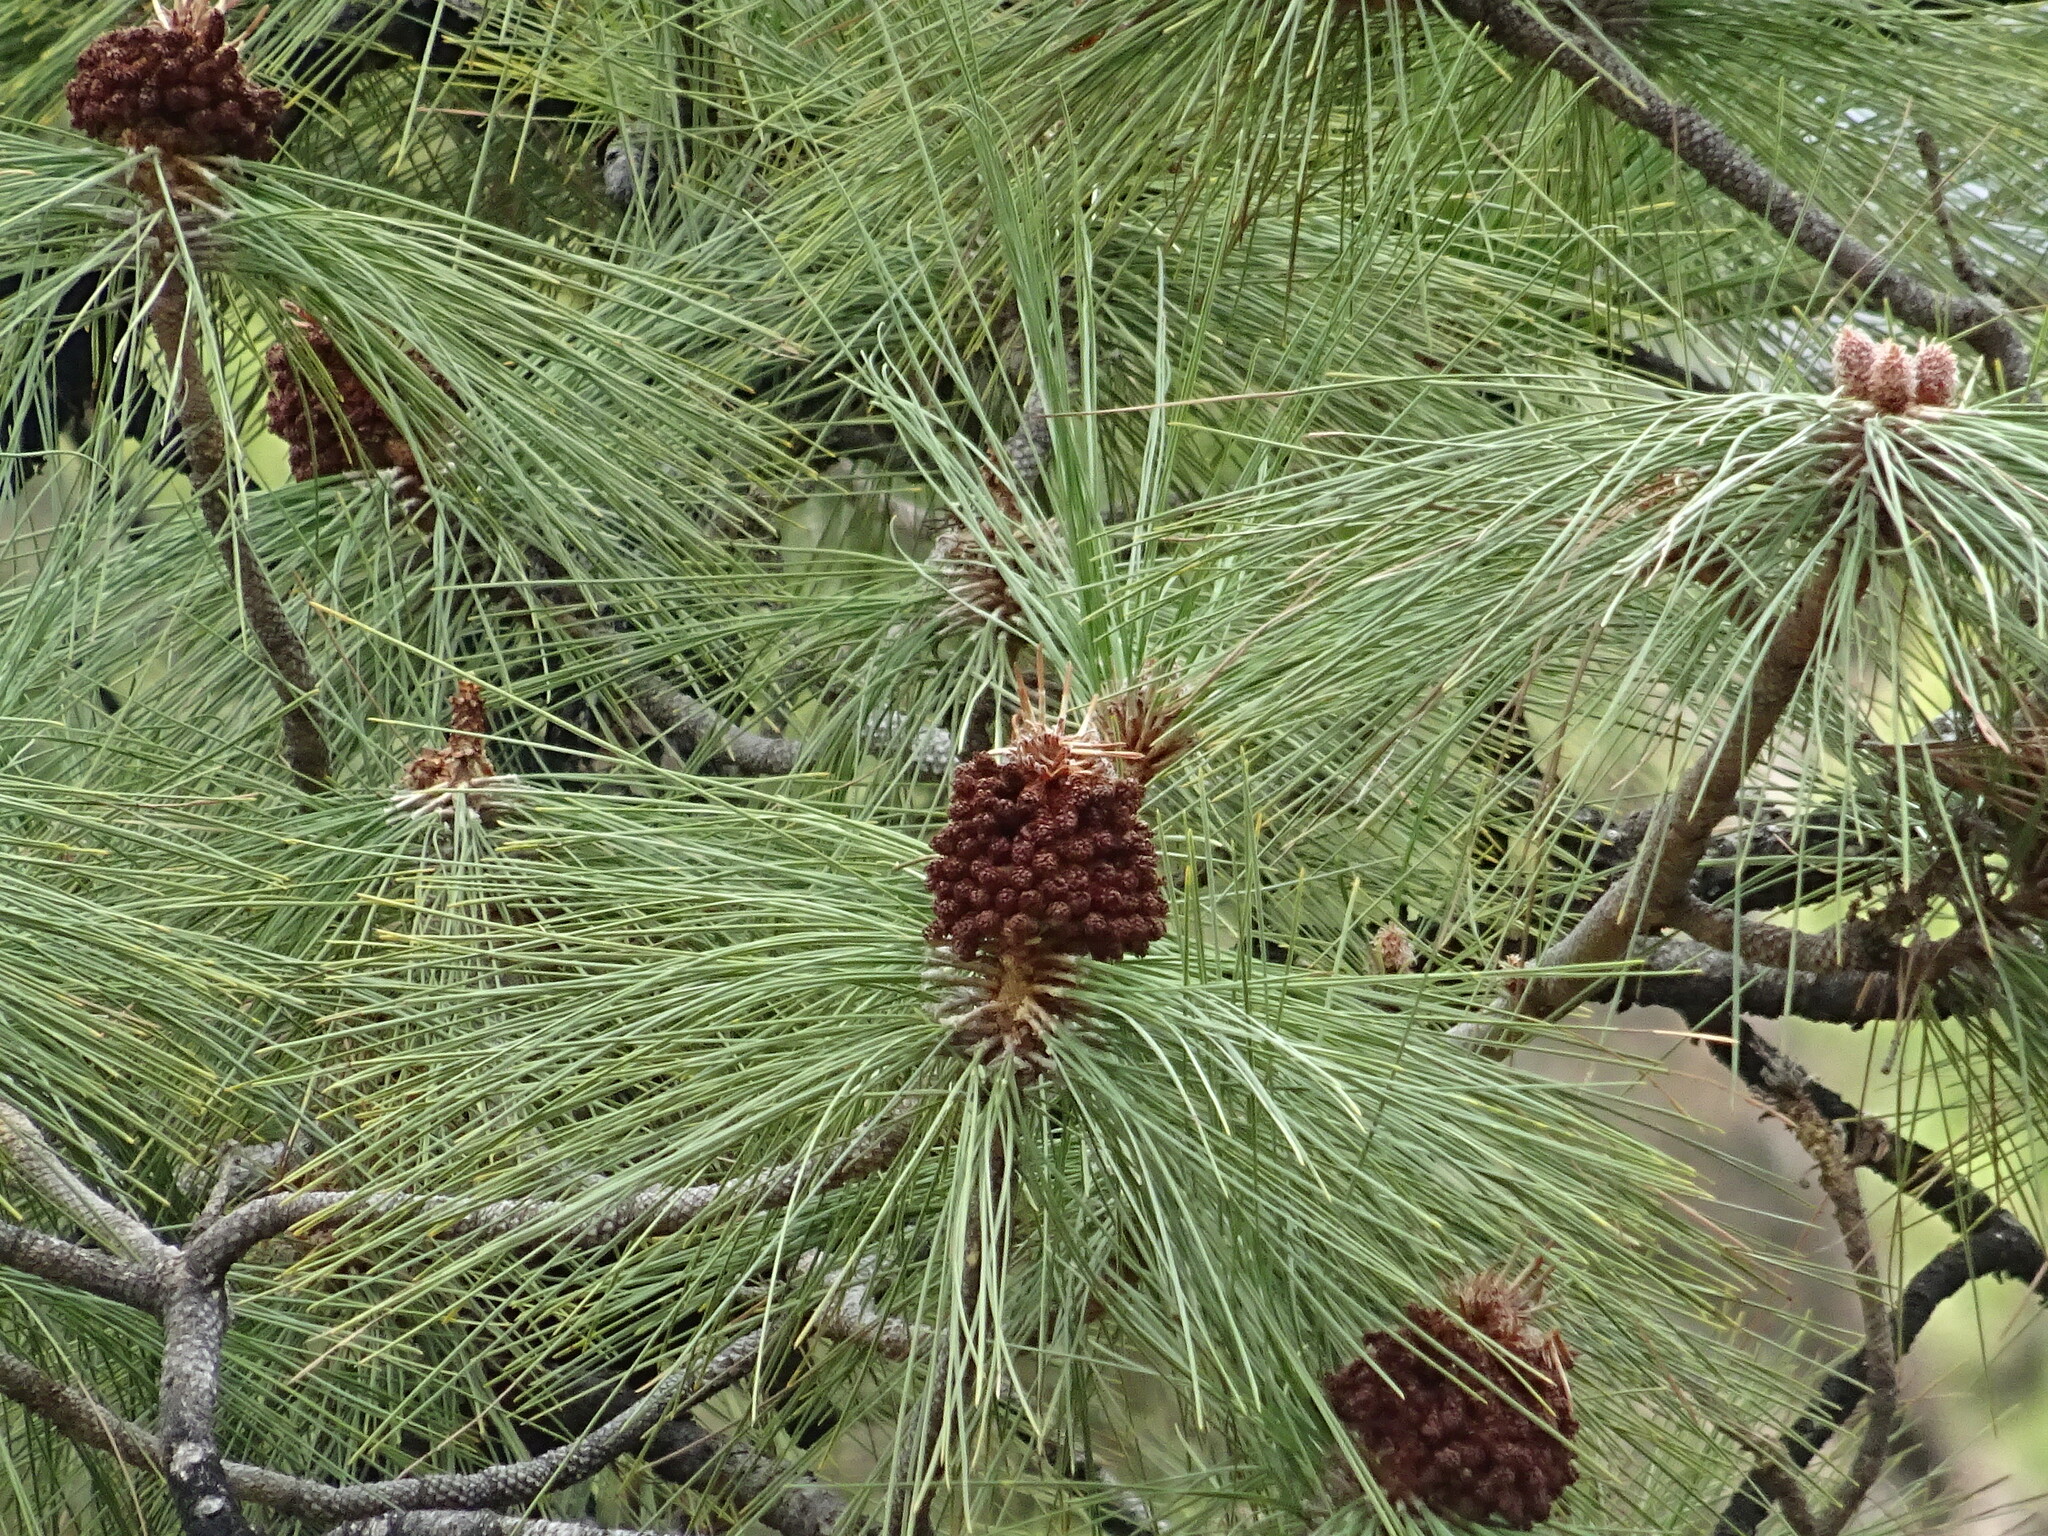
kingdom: Plantae
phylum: Tracheophyta
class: Pinopsida
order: Pinales
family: Pinaceae
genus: Pinus
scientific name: Pinus canariensis
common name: Canary islands pine
